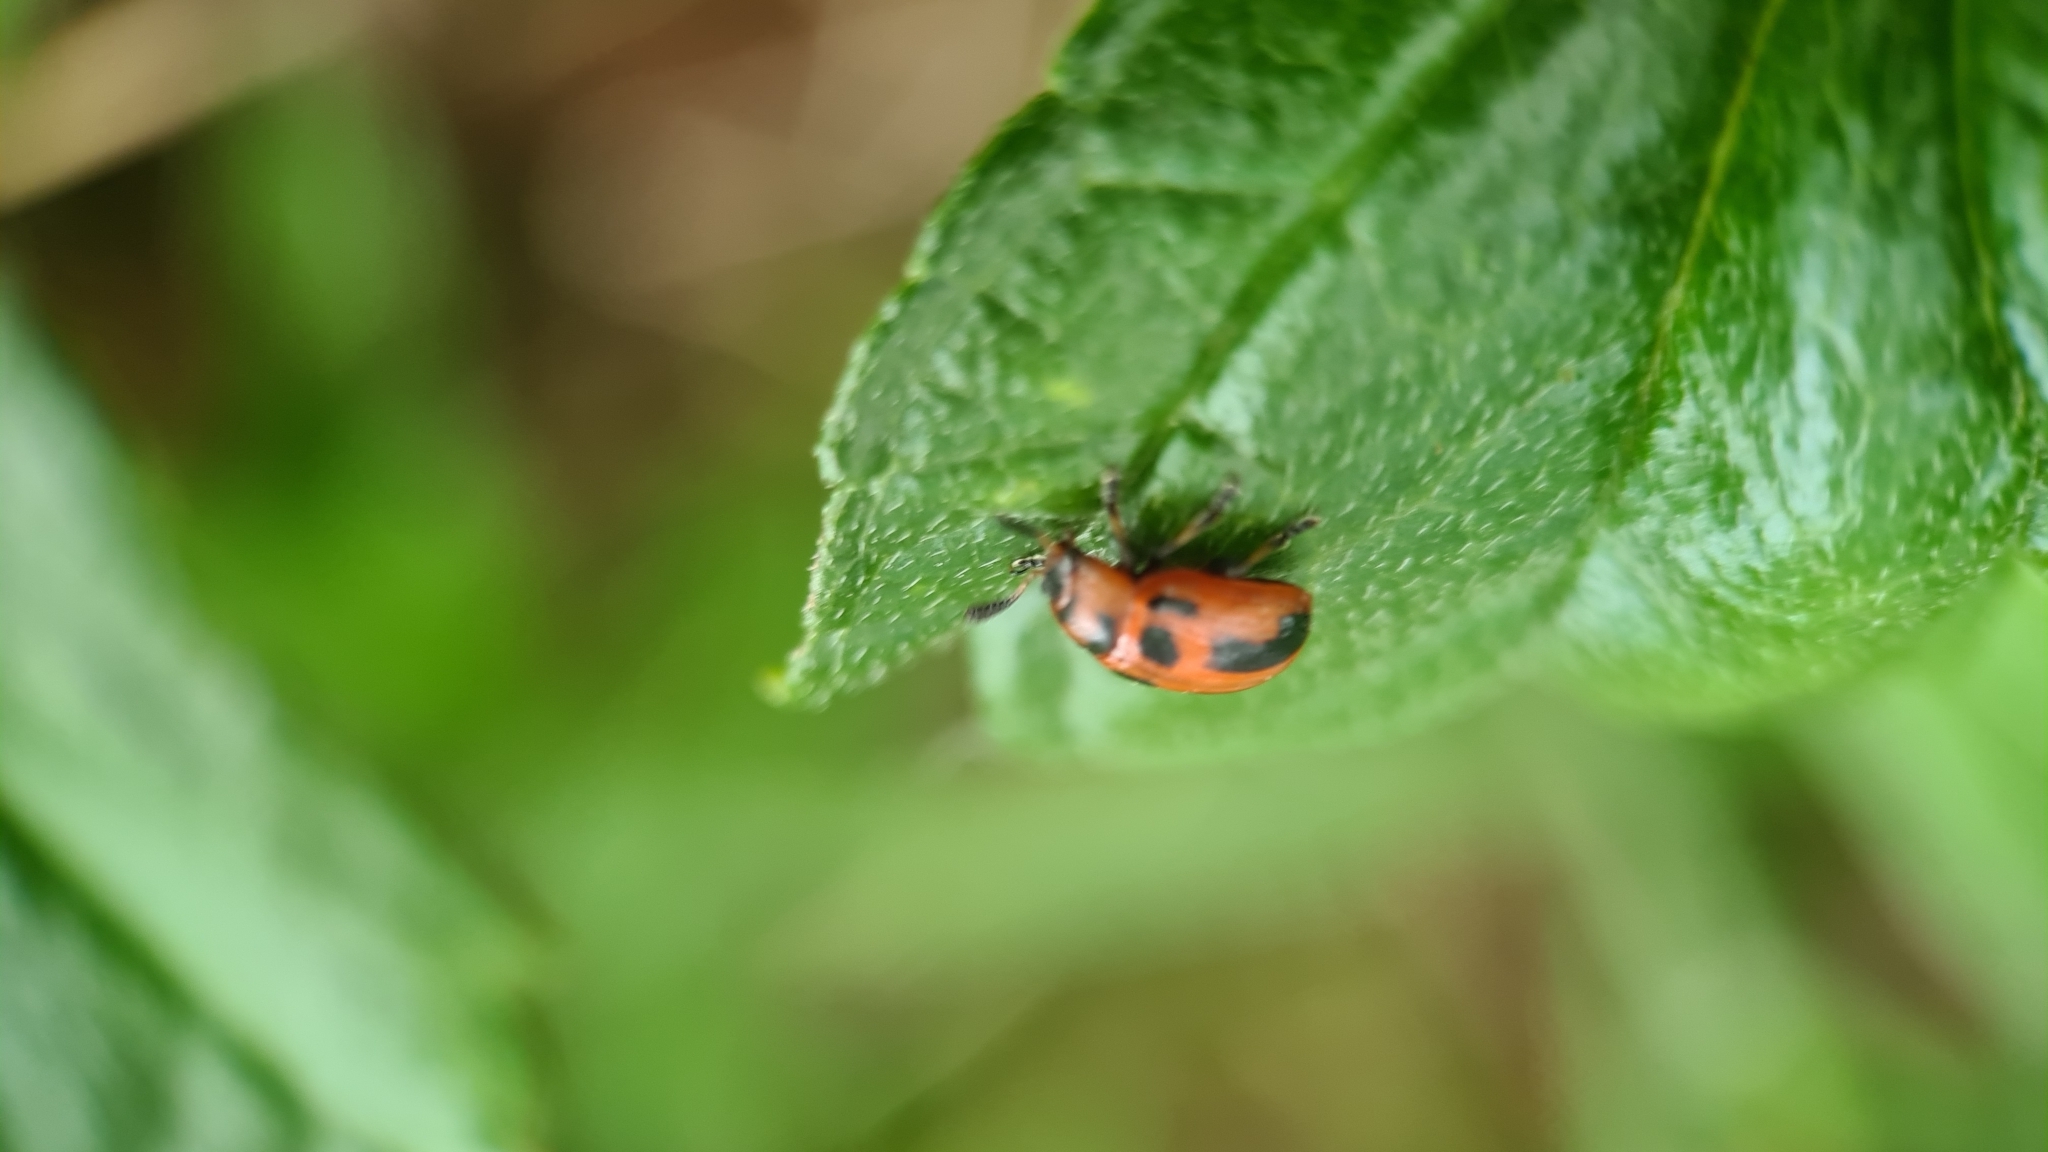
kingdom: Animalia
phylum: Arthropoda
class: Insecta
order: Coleoptera
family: Chrysomelidae
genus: Calomela
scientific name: Calomela
